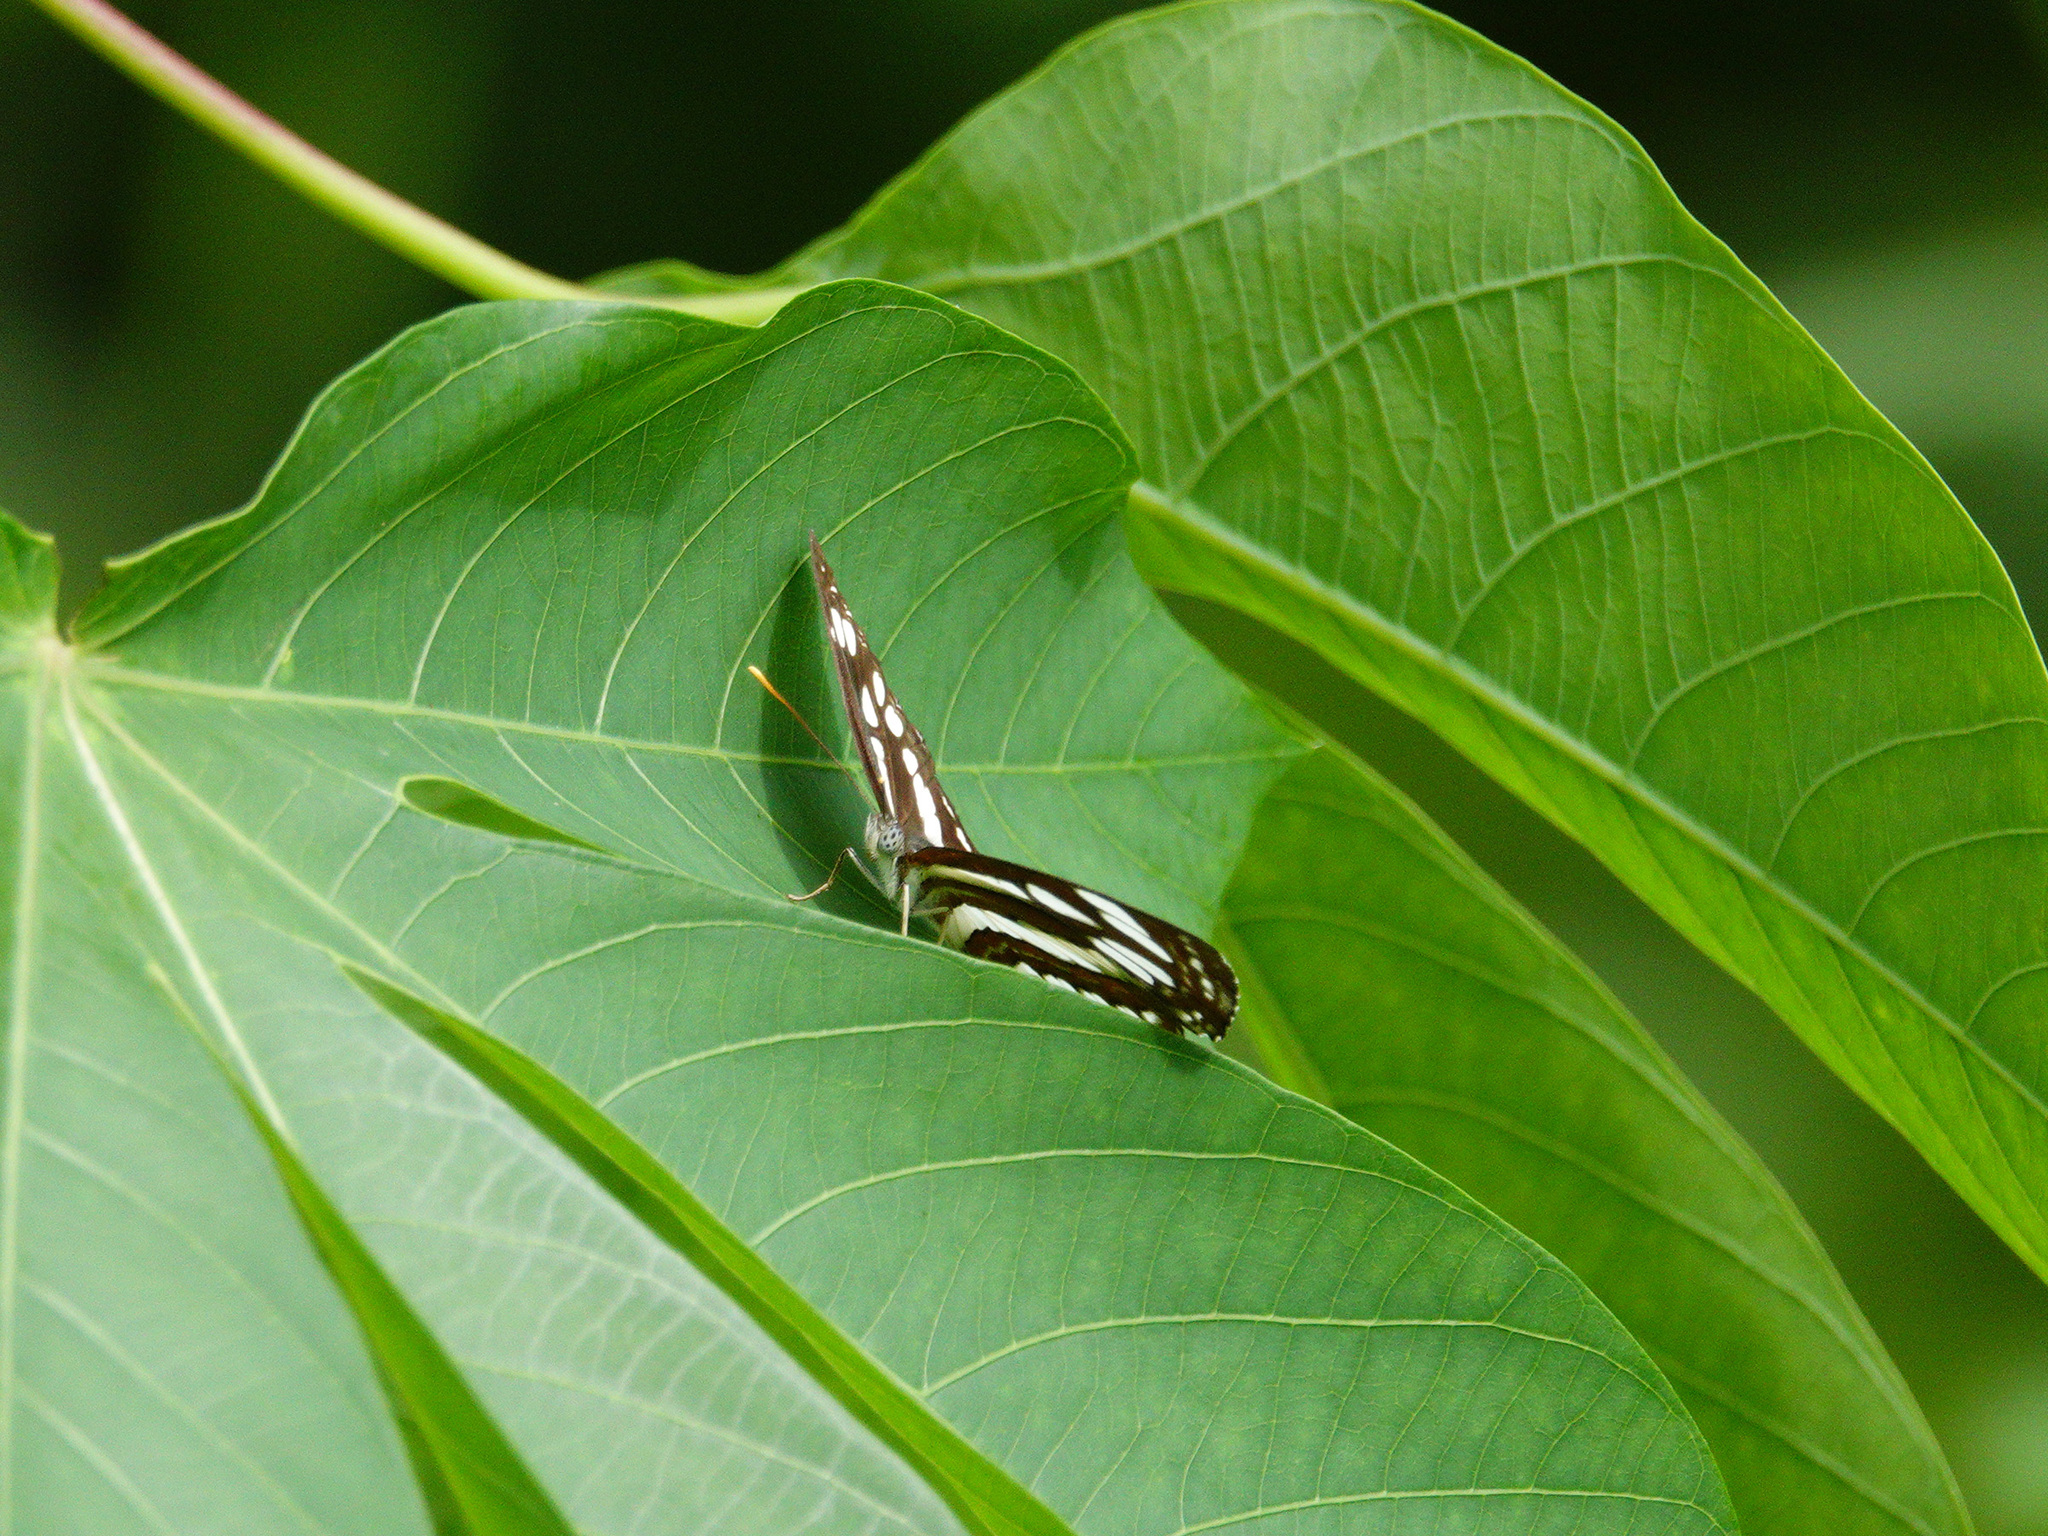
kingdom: Animalia
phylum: Arthropoda
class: Insecta
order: Lepidoptera
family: Nymphalidae
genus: Neptis
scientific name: Neptis hylas
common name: Common sailer
